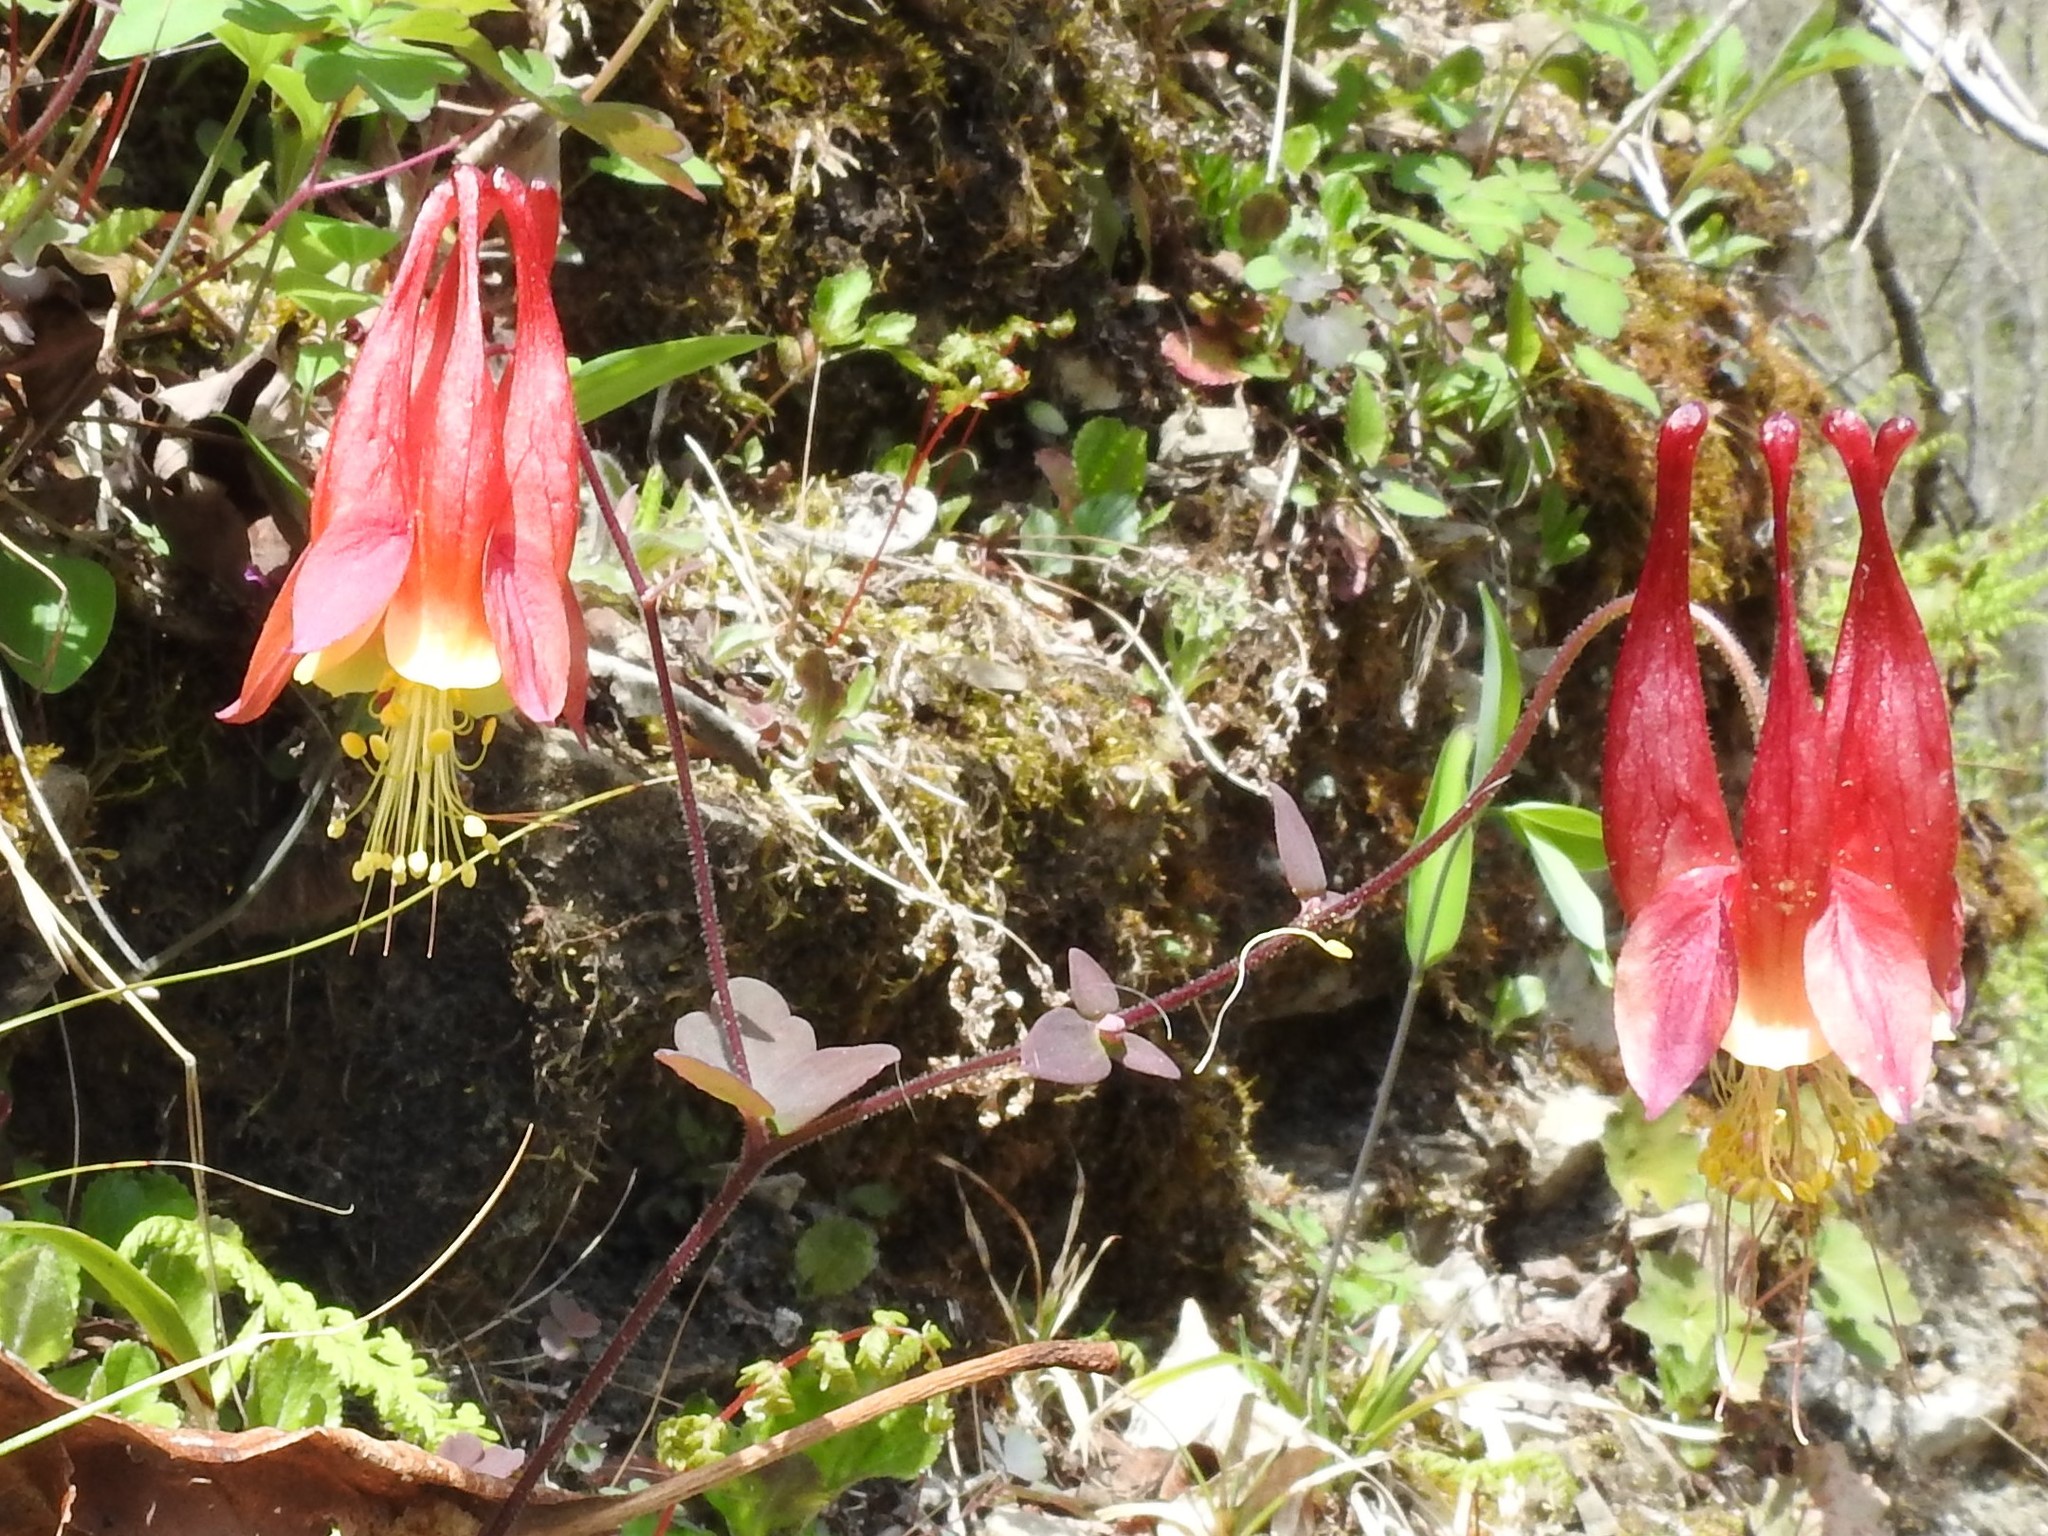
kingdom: Plantae
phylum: Tracheophyta
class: Magnoliopsida
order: Ranunculales
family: Ranunculaceae
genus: Aquilegia
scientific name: Aquilegia canadensis
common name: American columbine
